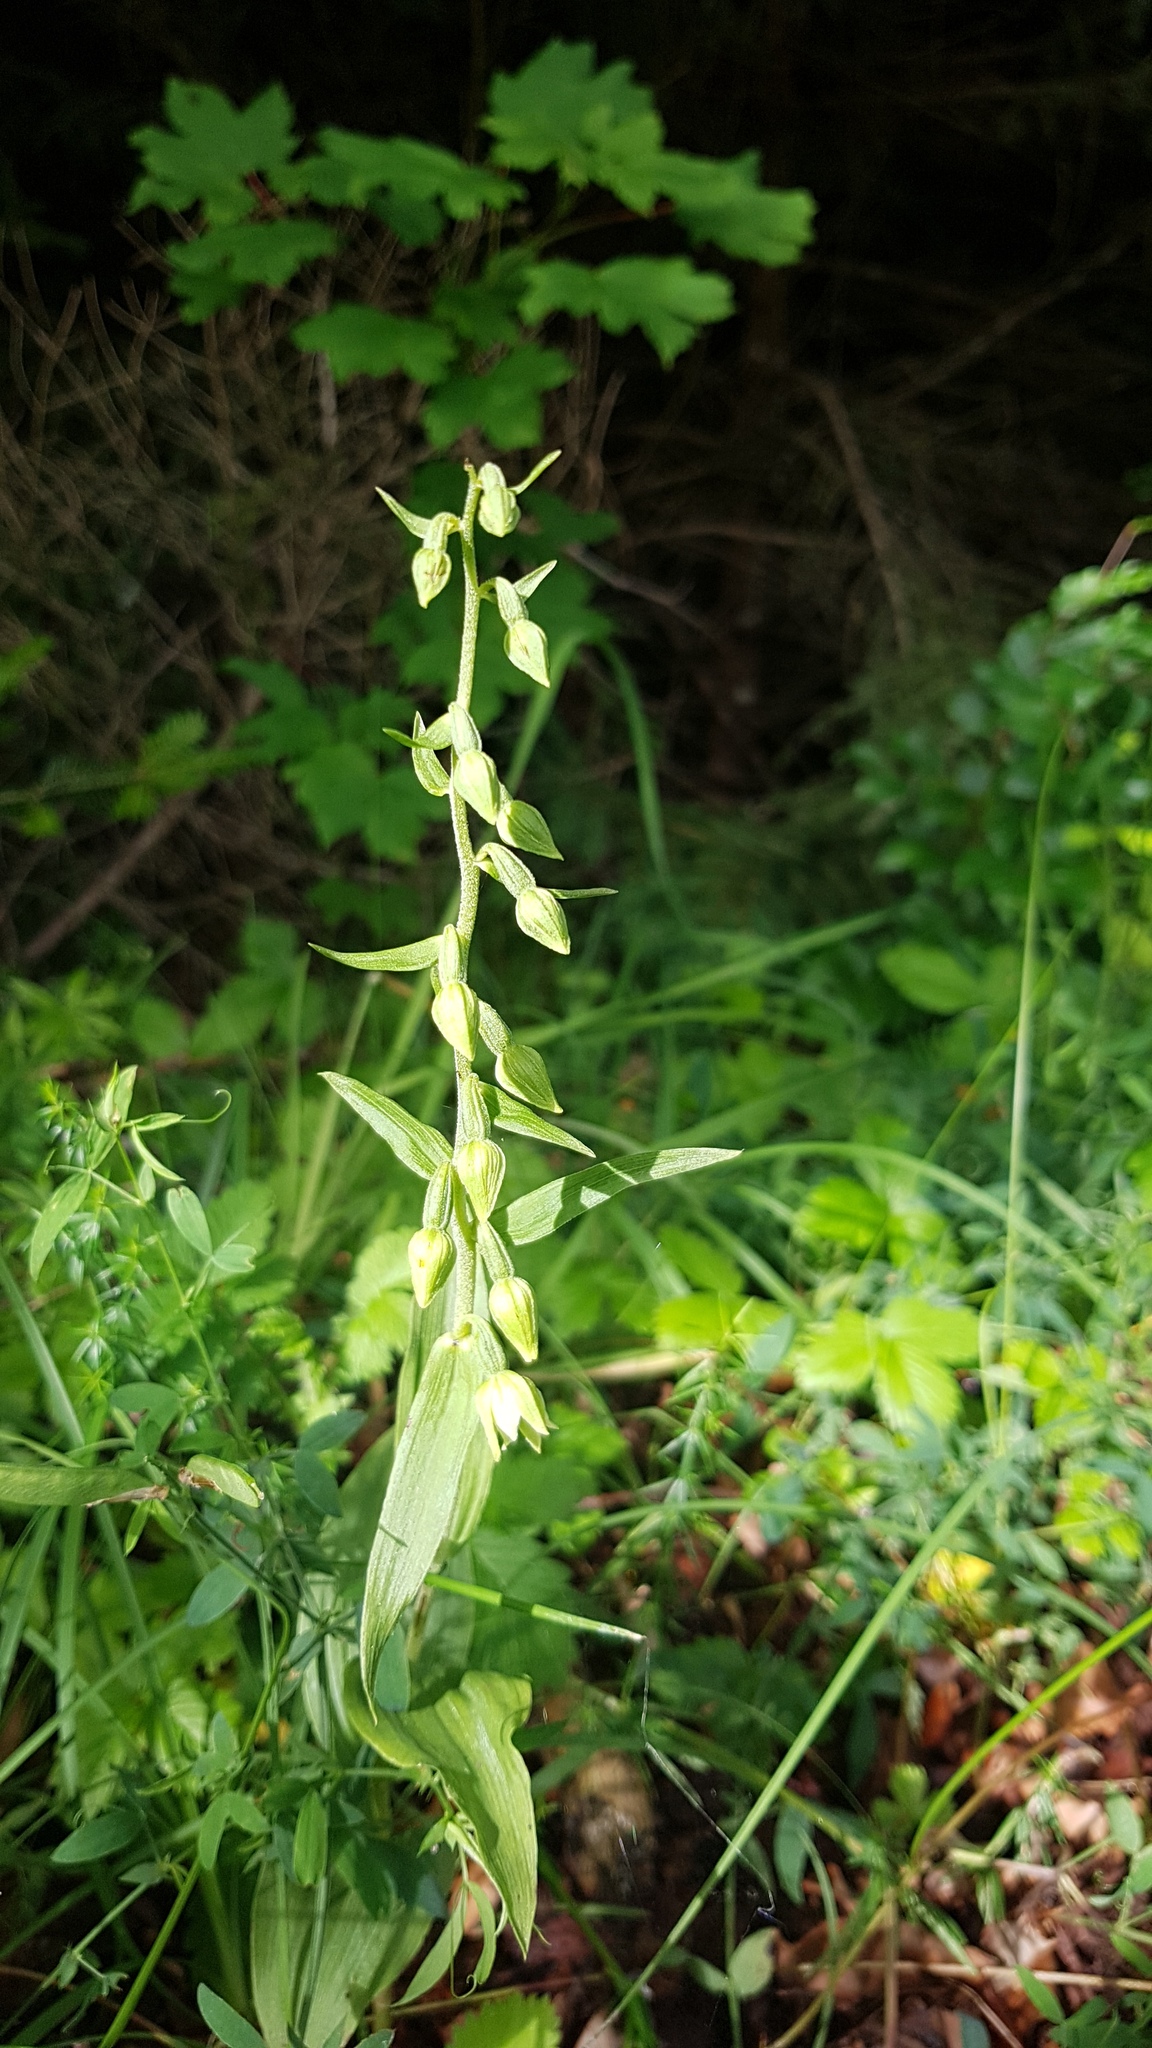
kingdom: Plantae
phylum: Tracheophyta
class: Liliopsida
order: Asparagales
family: Orchidaceae
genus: Epipactis
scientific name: Epipactis leptochila
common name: Narrow-lipped helleborine
